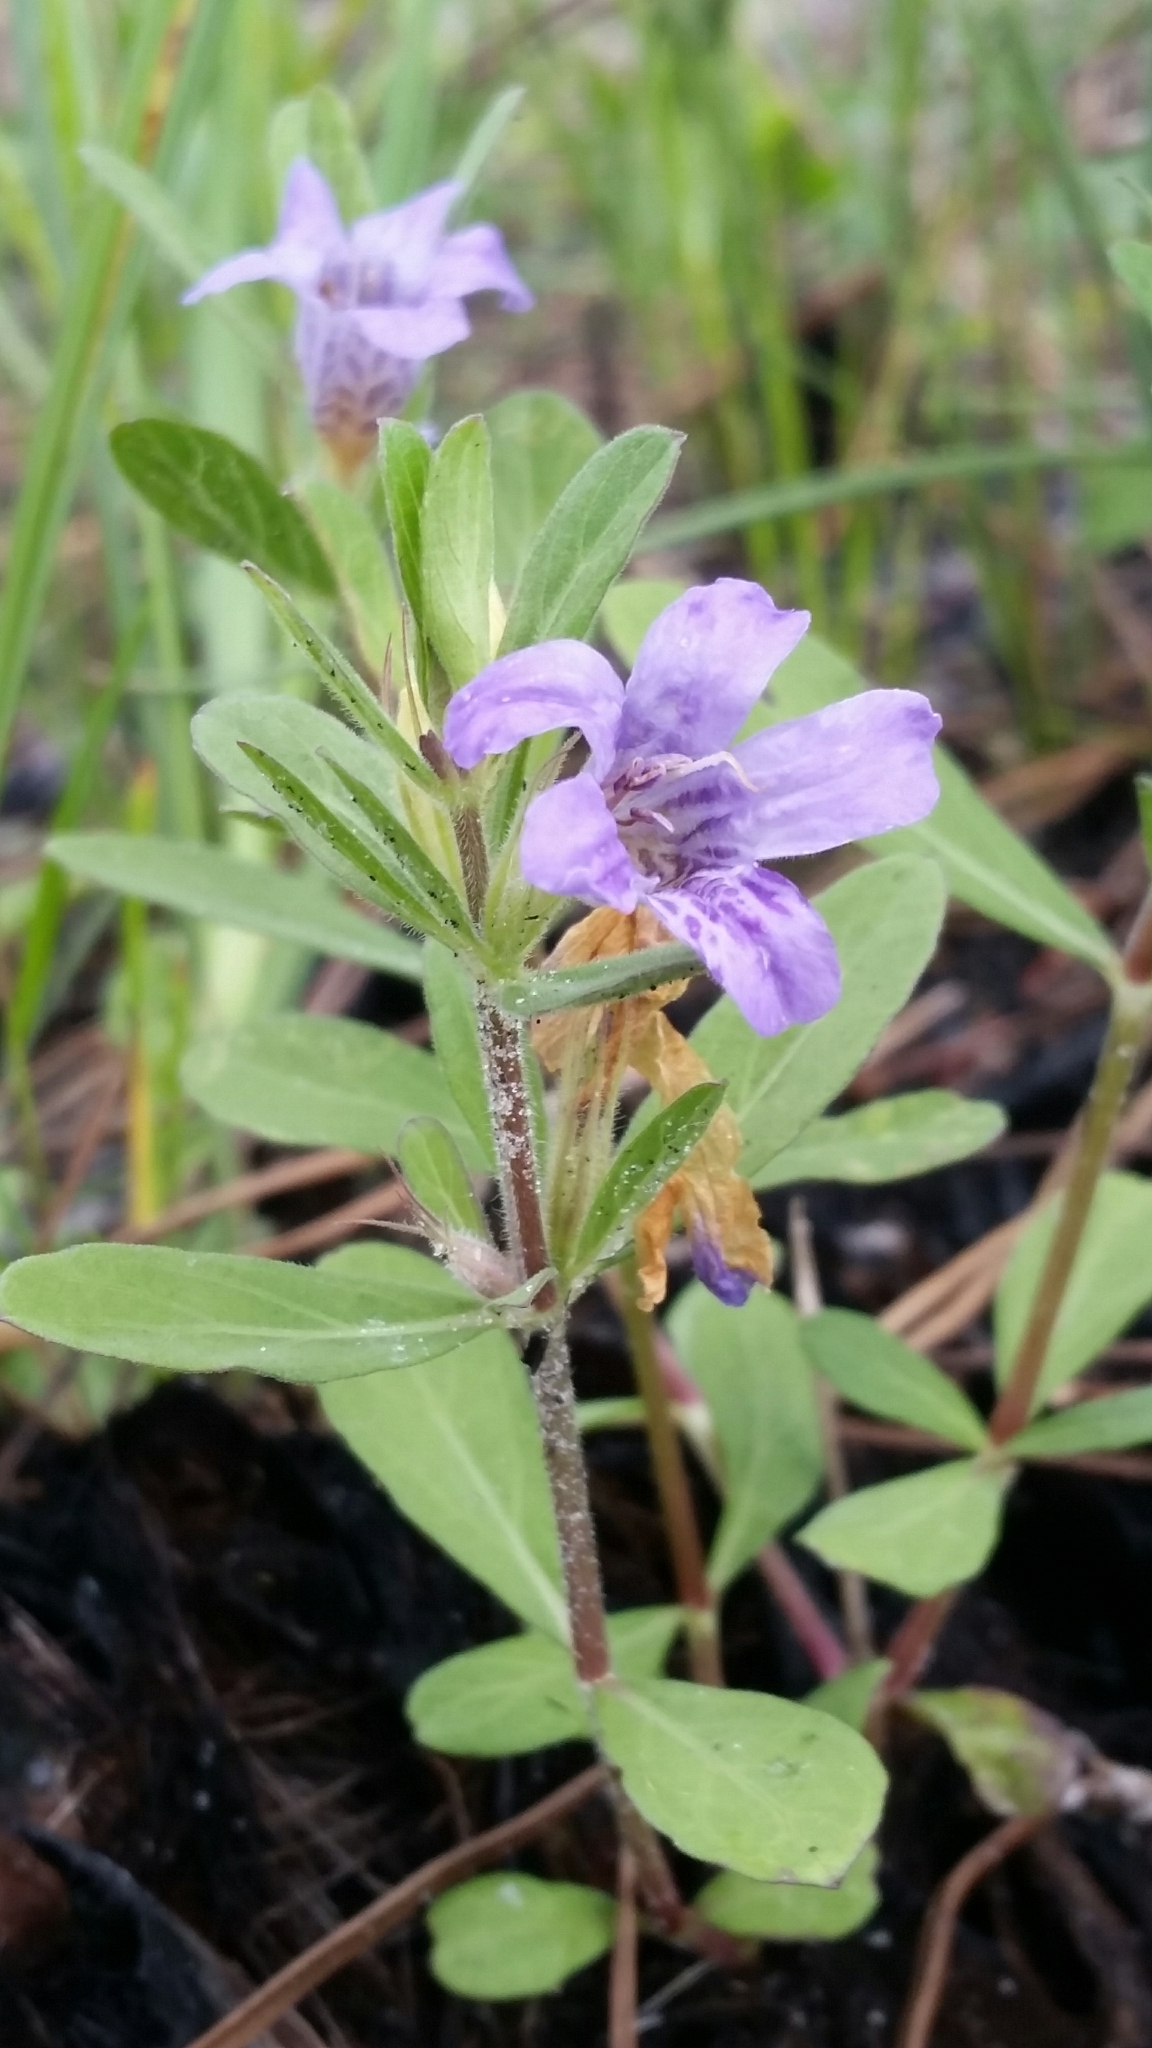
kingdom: Plantae
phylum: Tracheophyta
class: Magnoliopsida
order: Lamiales
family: Acanthaceae
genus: Dyschoriste
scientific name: Dyschoriste oblongifolia
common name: Blue twinflower
